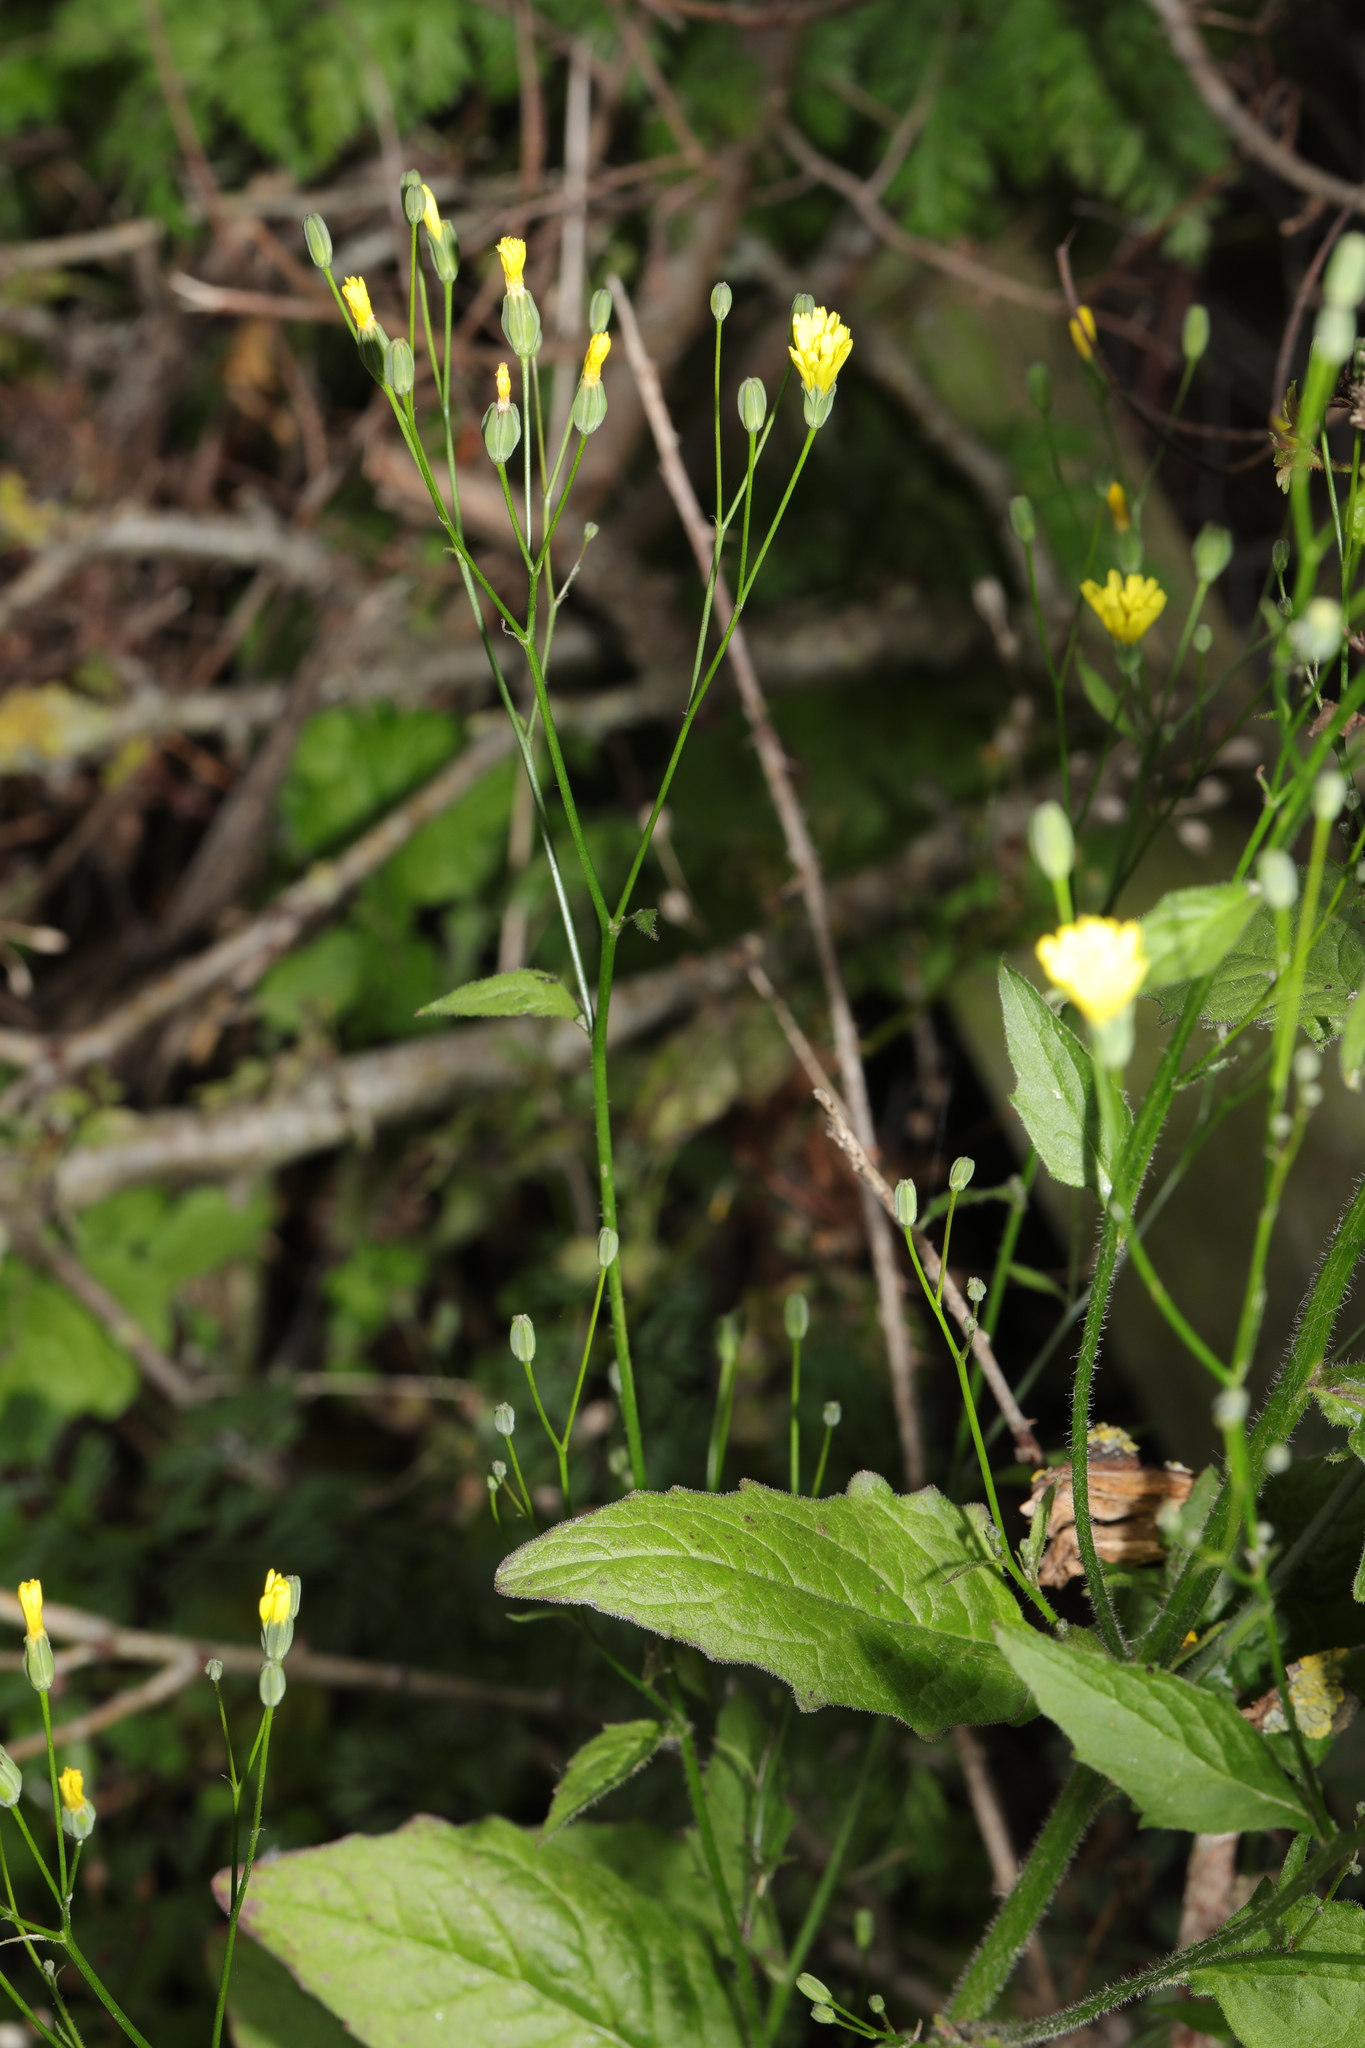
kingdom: Plantae
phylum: Tracheophyta
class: Magnoliopsida
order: Asterales
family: Asteraceae
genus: Lapsana
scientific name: Lapsana communis
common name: Nipplewort
